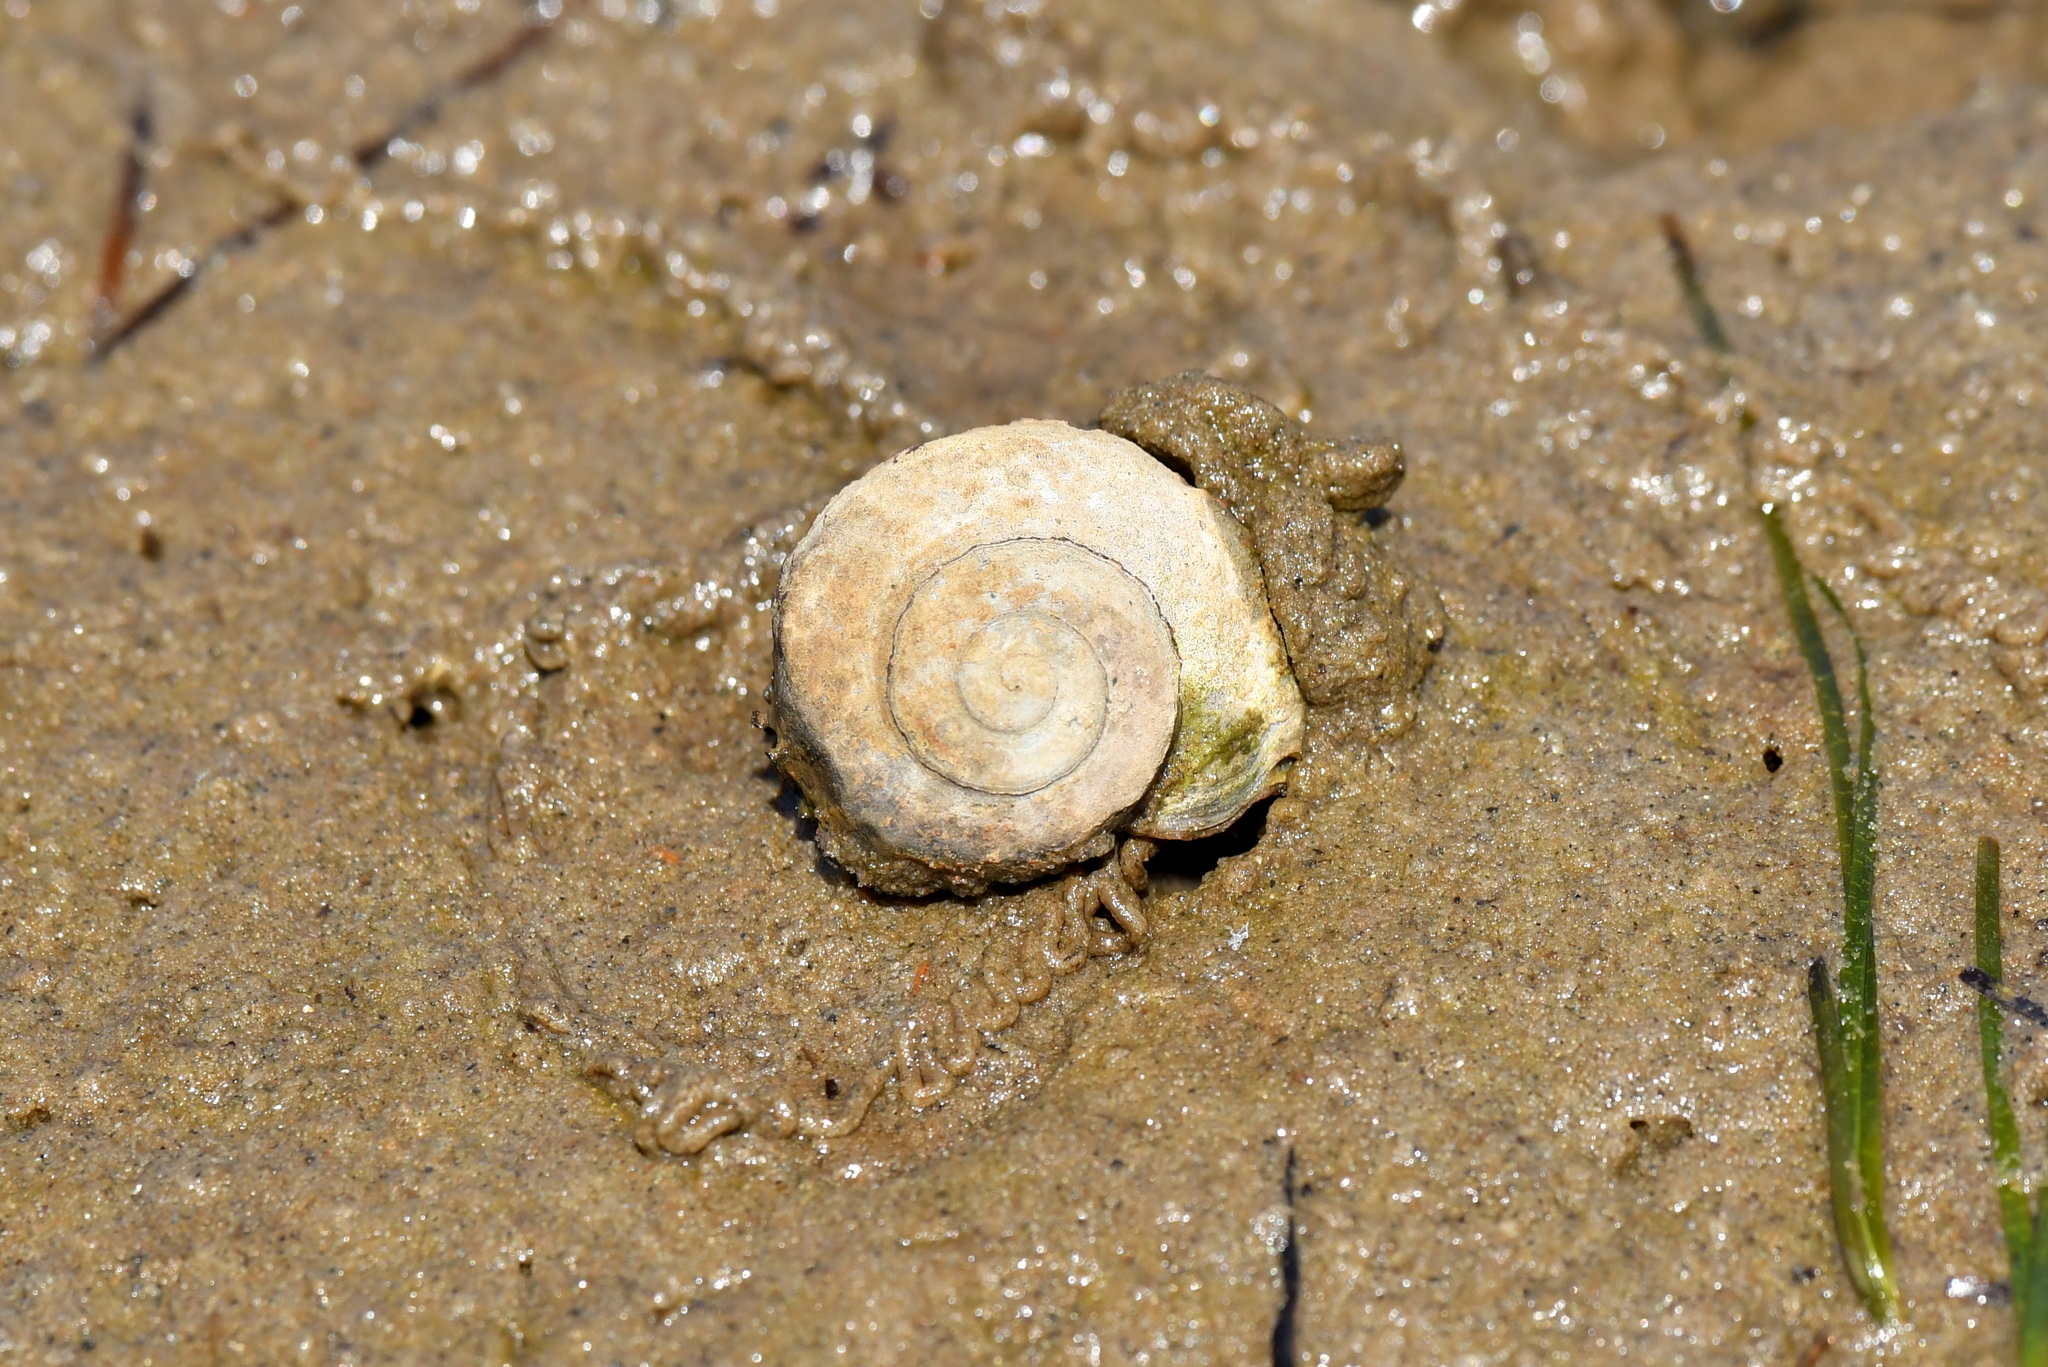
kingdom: Animalia
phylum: Mollusca
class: Gastropoda
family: Amphibolidae
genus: Amphibola
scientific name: Amphibola crenata
